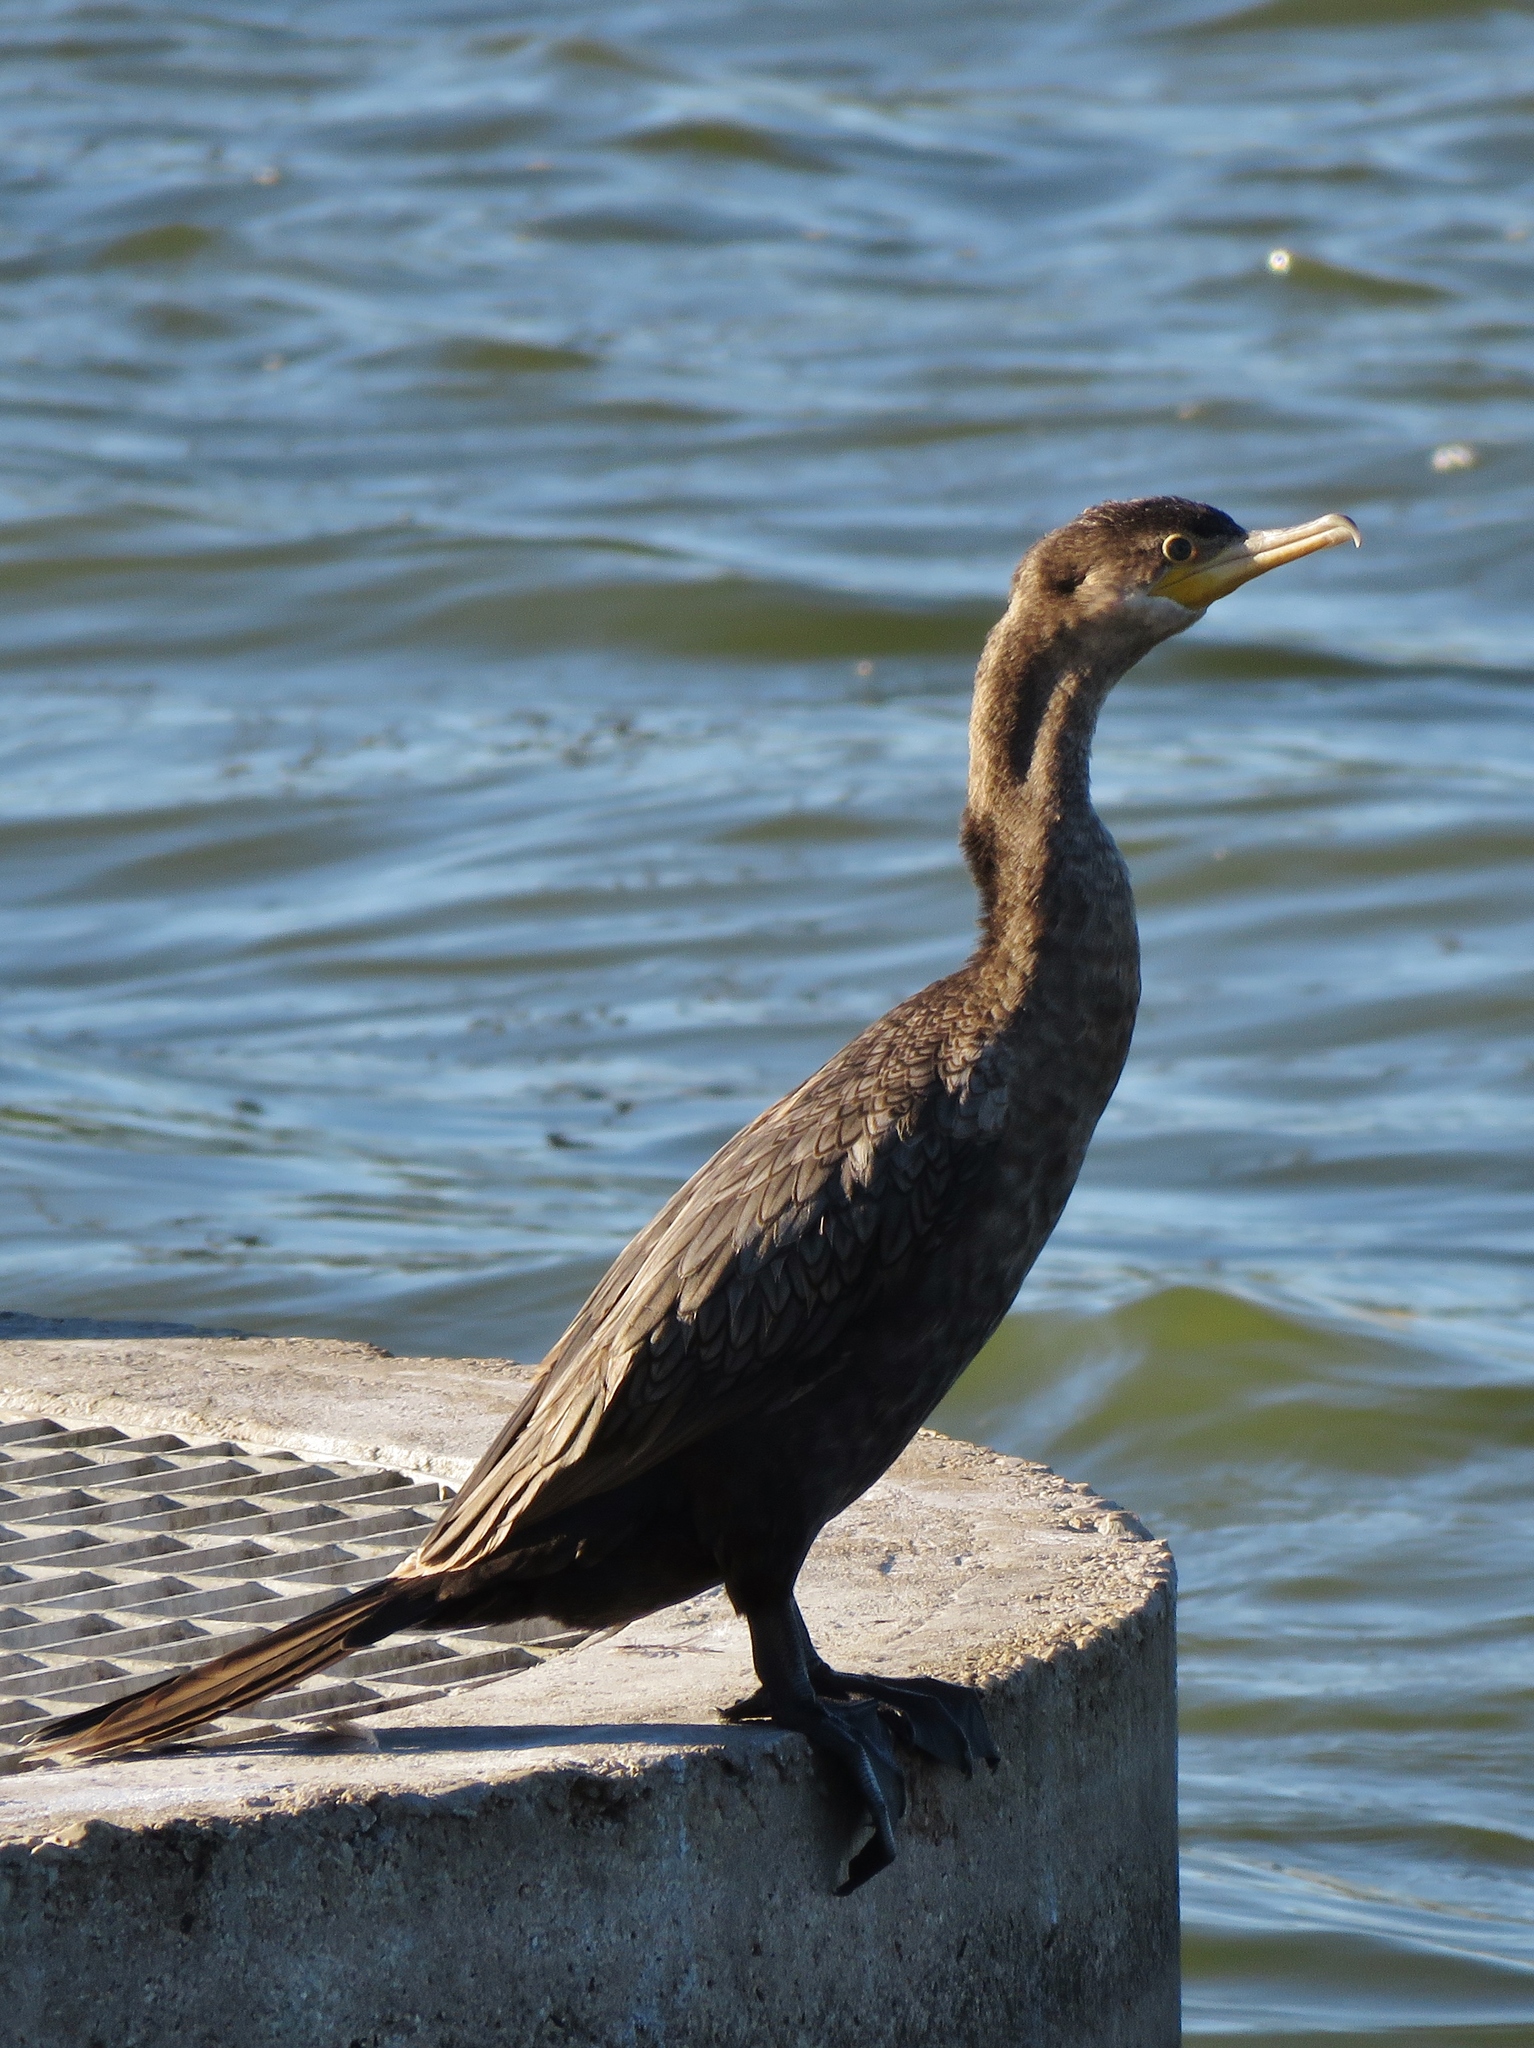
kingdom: Animalia
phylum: Chordata
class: Aves
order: Suliformes
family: Phalacrocoracidae
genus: Phalacrocorax
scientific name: Phalacrocorax brasilianus
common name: Neotropic cormorant
